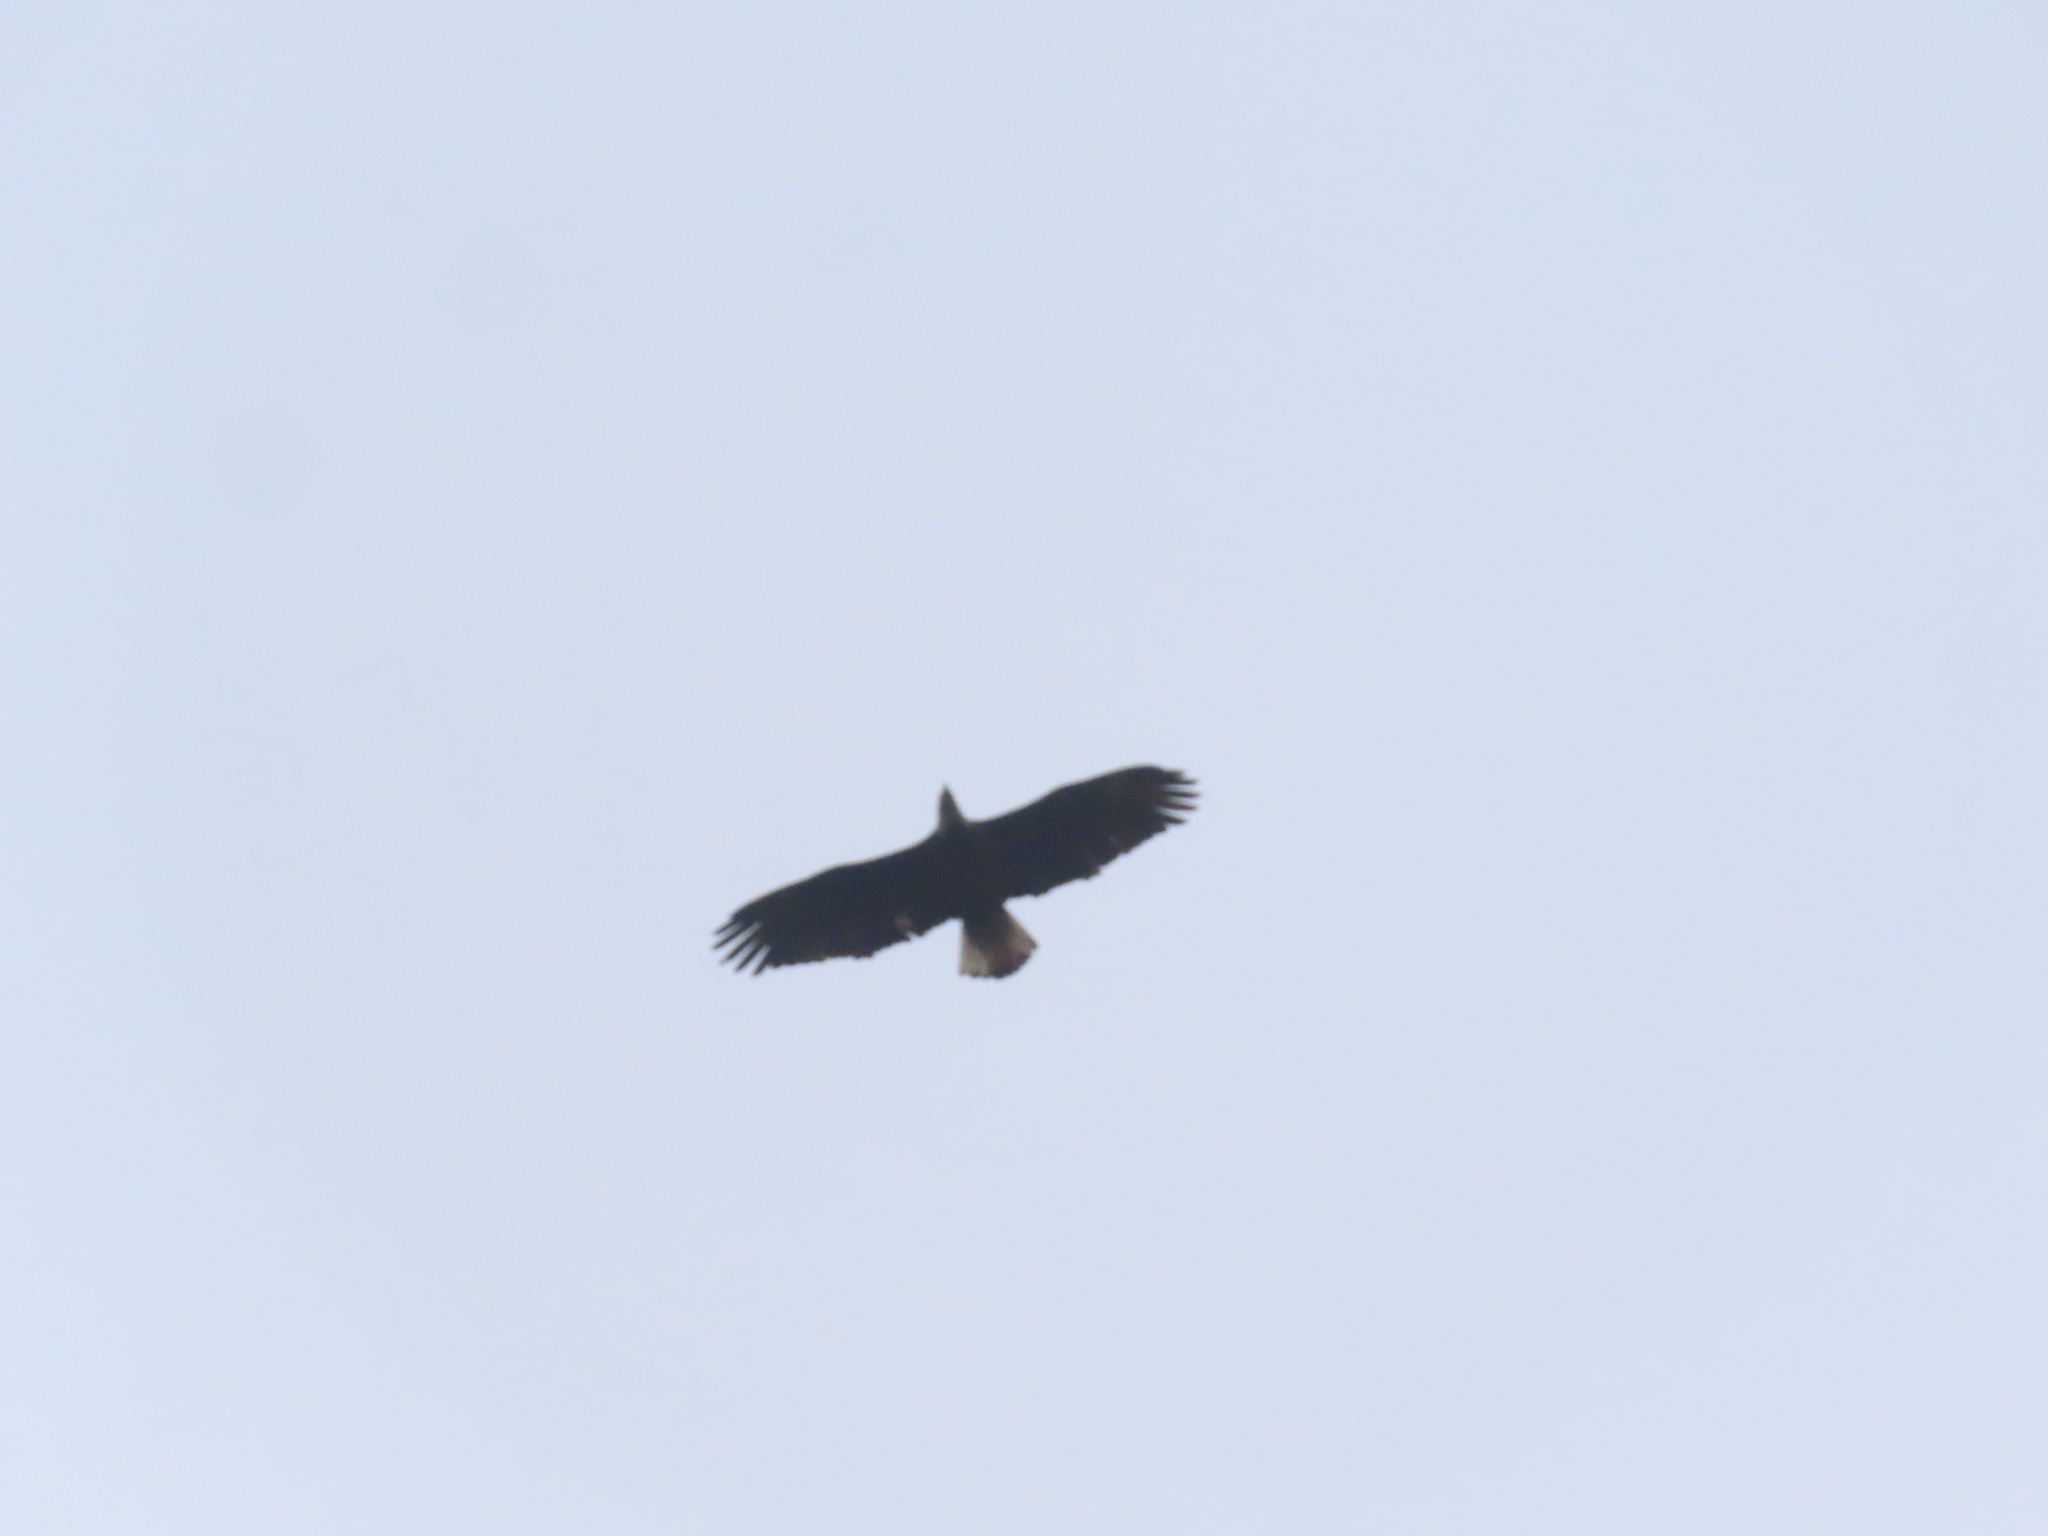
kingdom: Animalia
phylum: Chordata
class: Aves
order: Accipitriformes
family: Accipitridae
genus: Haliaeetus
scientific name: Haliaeetus leucocephalus
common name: Bald eagle
